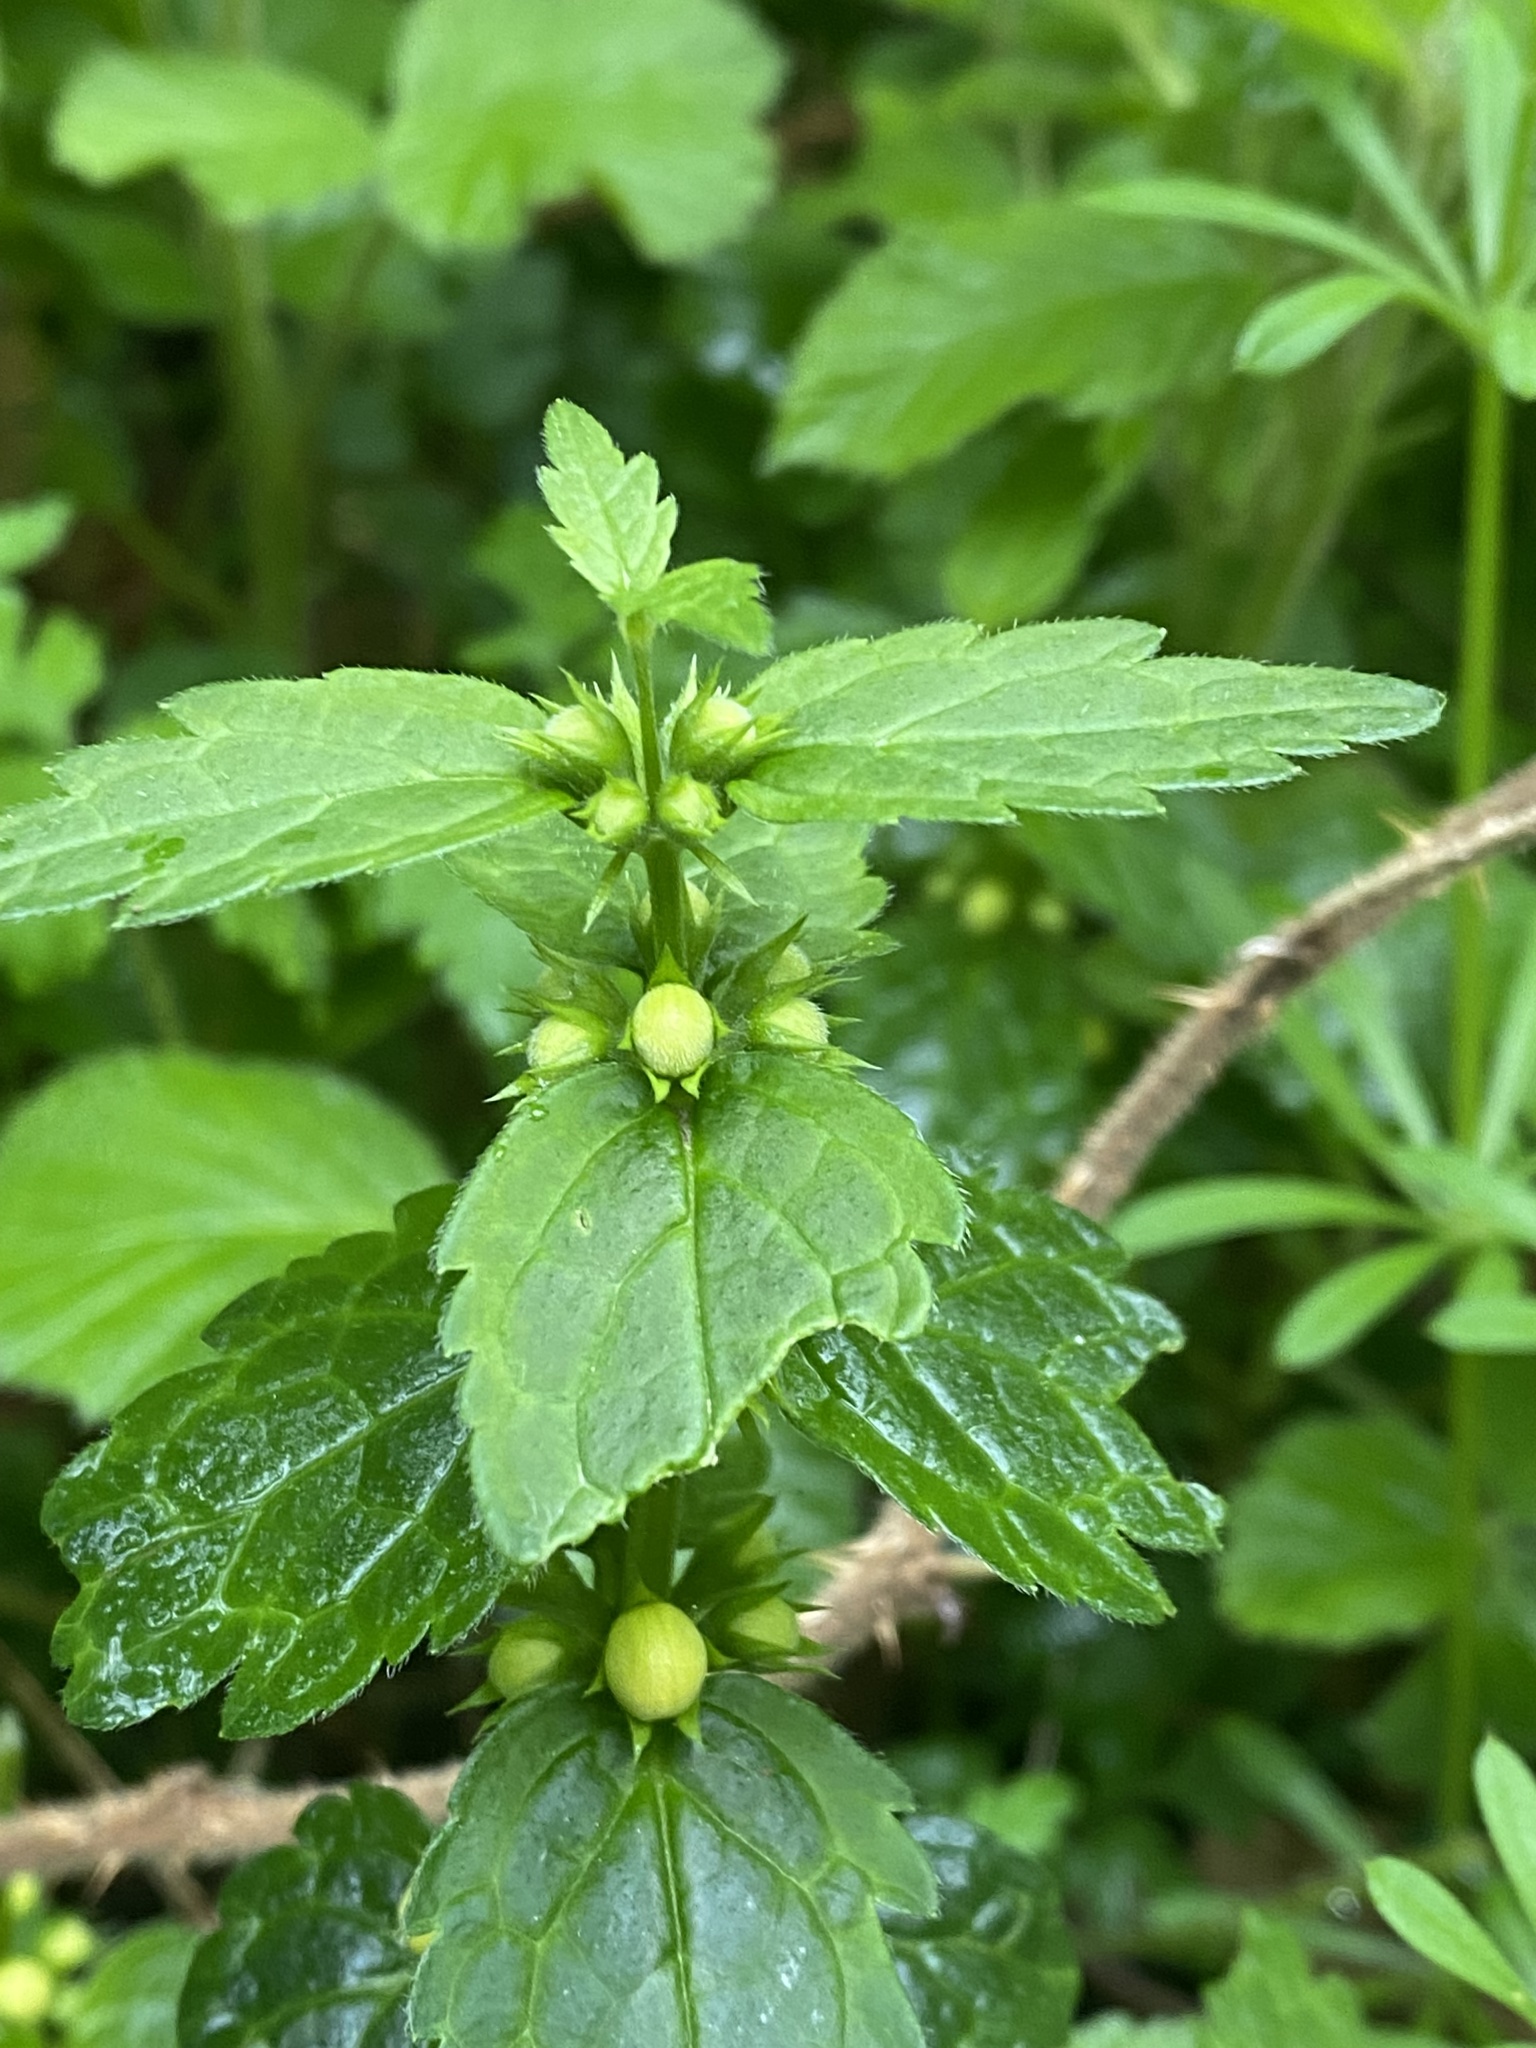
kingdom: Plantae
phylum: Tracheophyta
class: Magnoliopsida
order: Lamiales
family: Lamiaceae
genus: Lamium
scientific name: Lamium galeobdolon
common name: Yellow archangel
